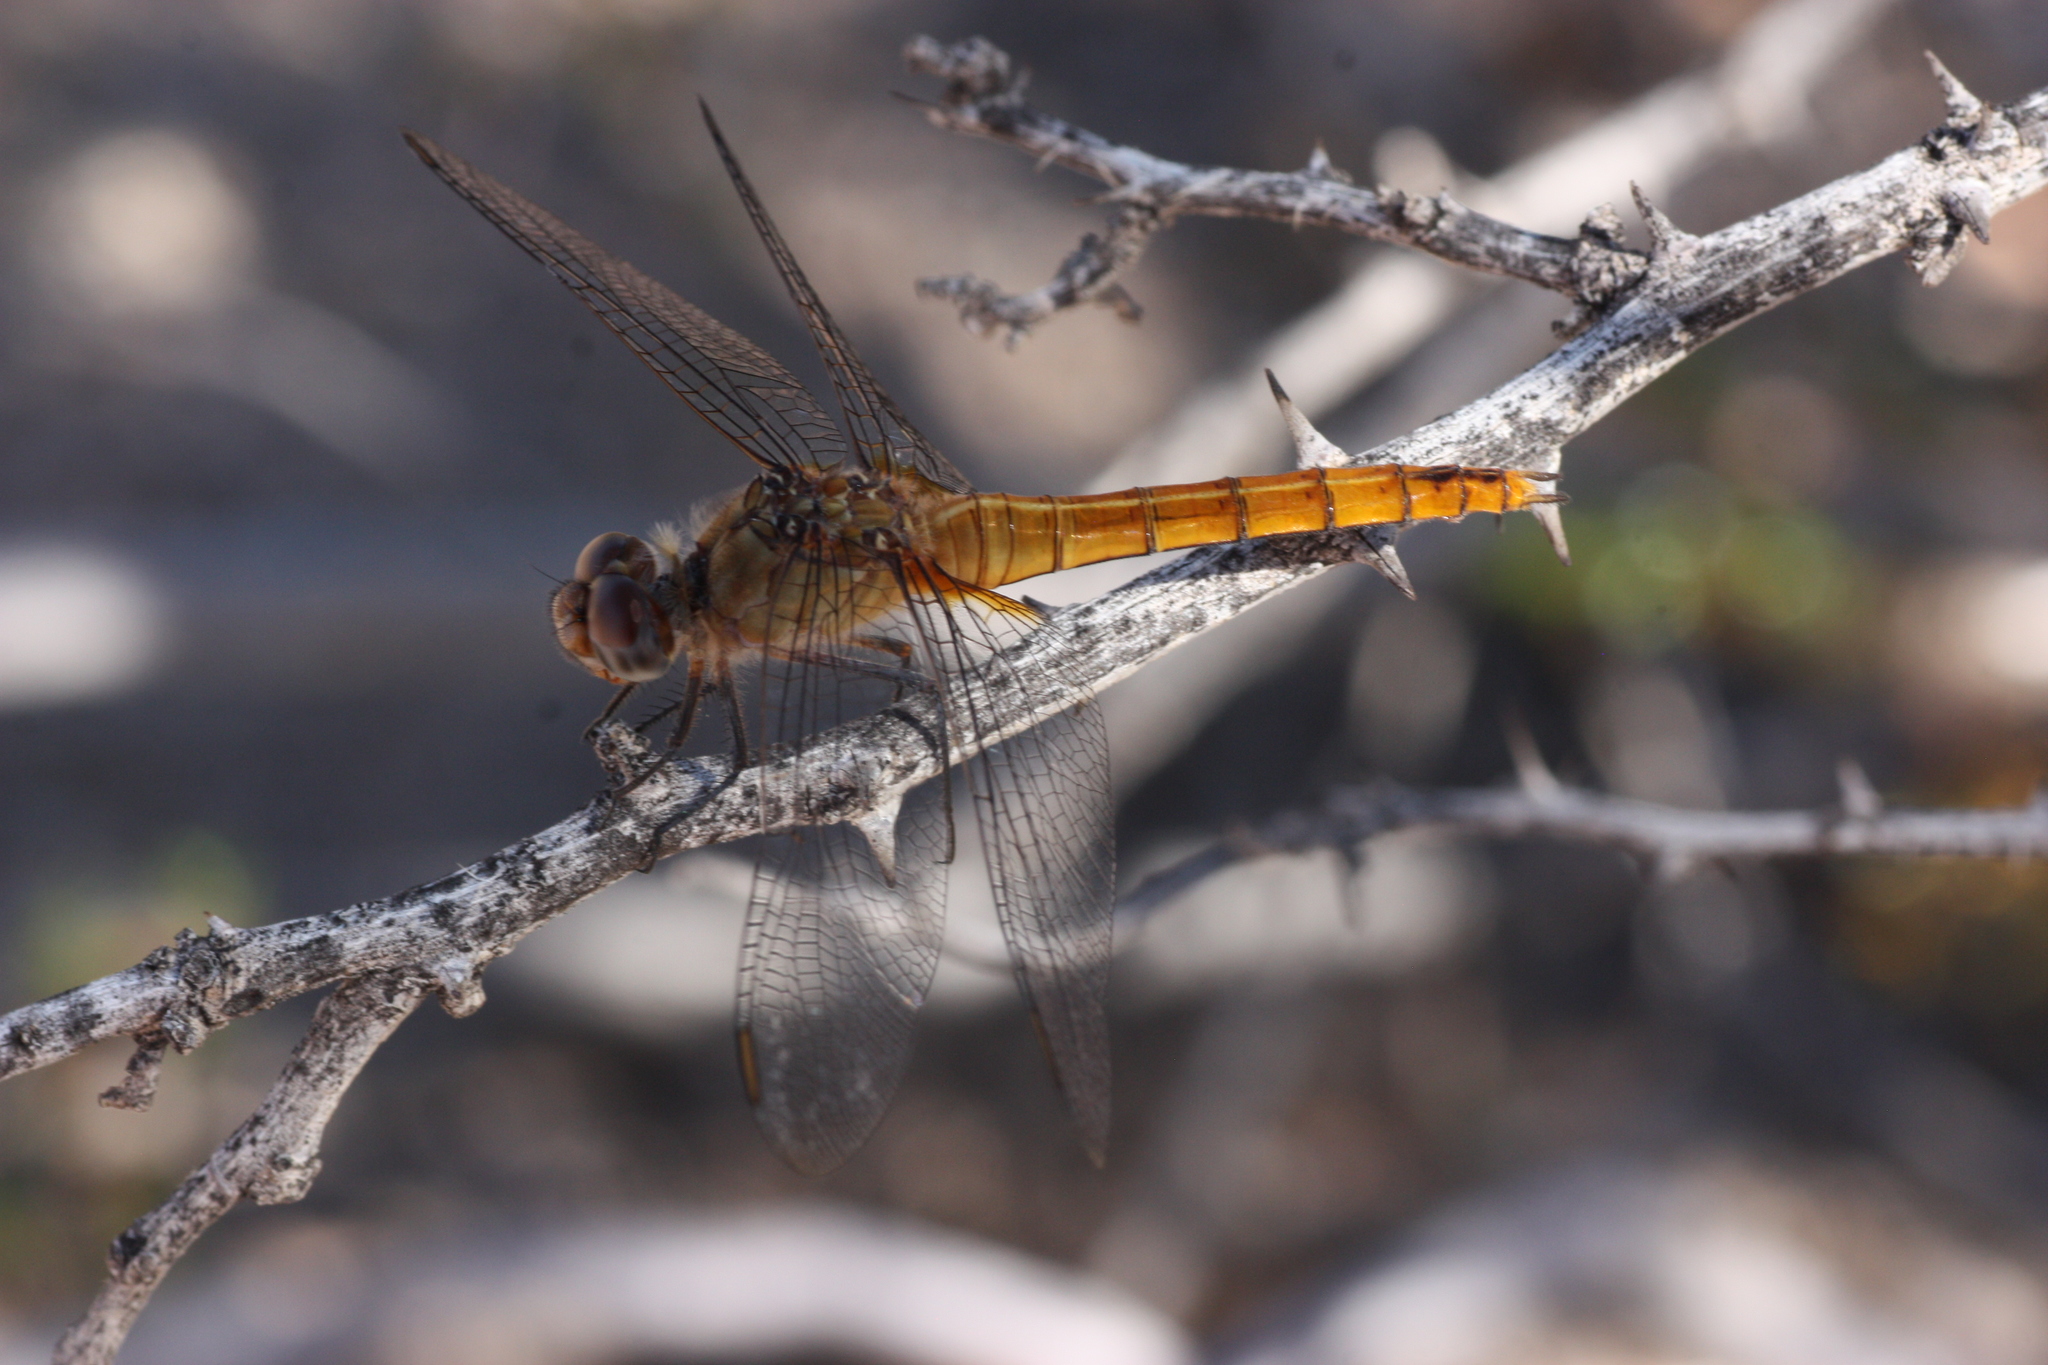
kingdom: Animalia
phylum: Arthropoda
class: Insecta
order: Odonata
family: Libellulidae
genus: Brachymesia
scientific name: Brachymesia furcata
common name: Red-taled pennant
